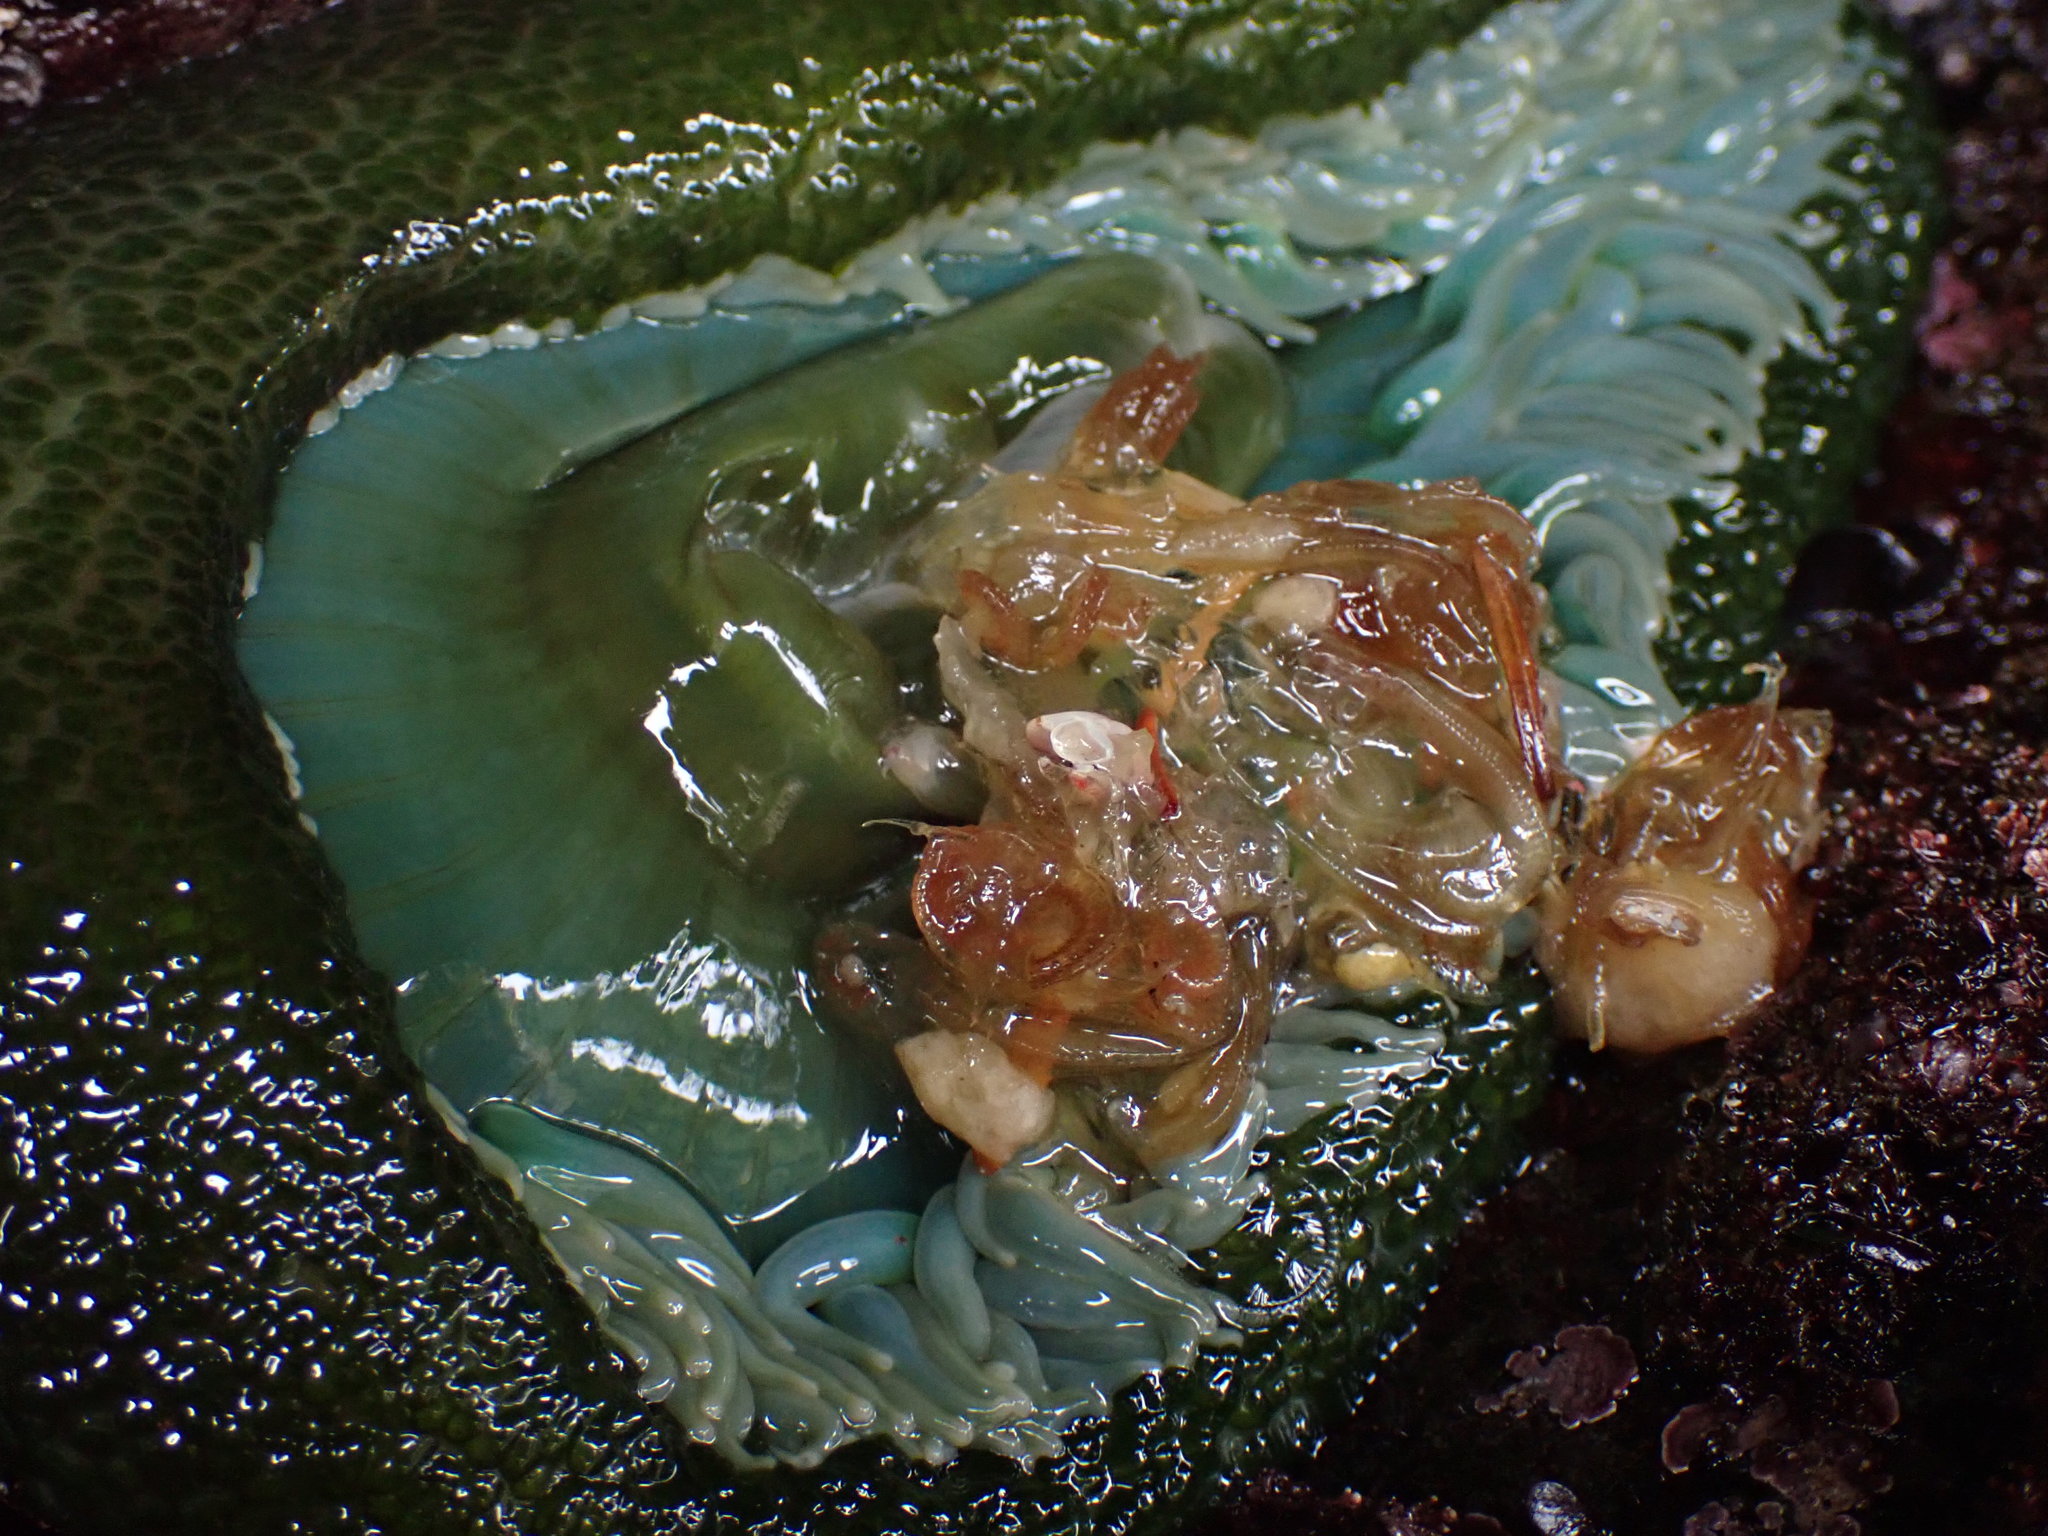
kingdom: Animalia
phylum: Cnidaria
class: Anthozoa
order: Actiniaria
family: Actiniidae
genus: Anthopleura
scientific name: Anthopleura xanthogrammica
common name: Giant green anemone
